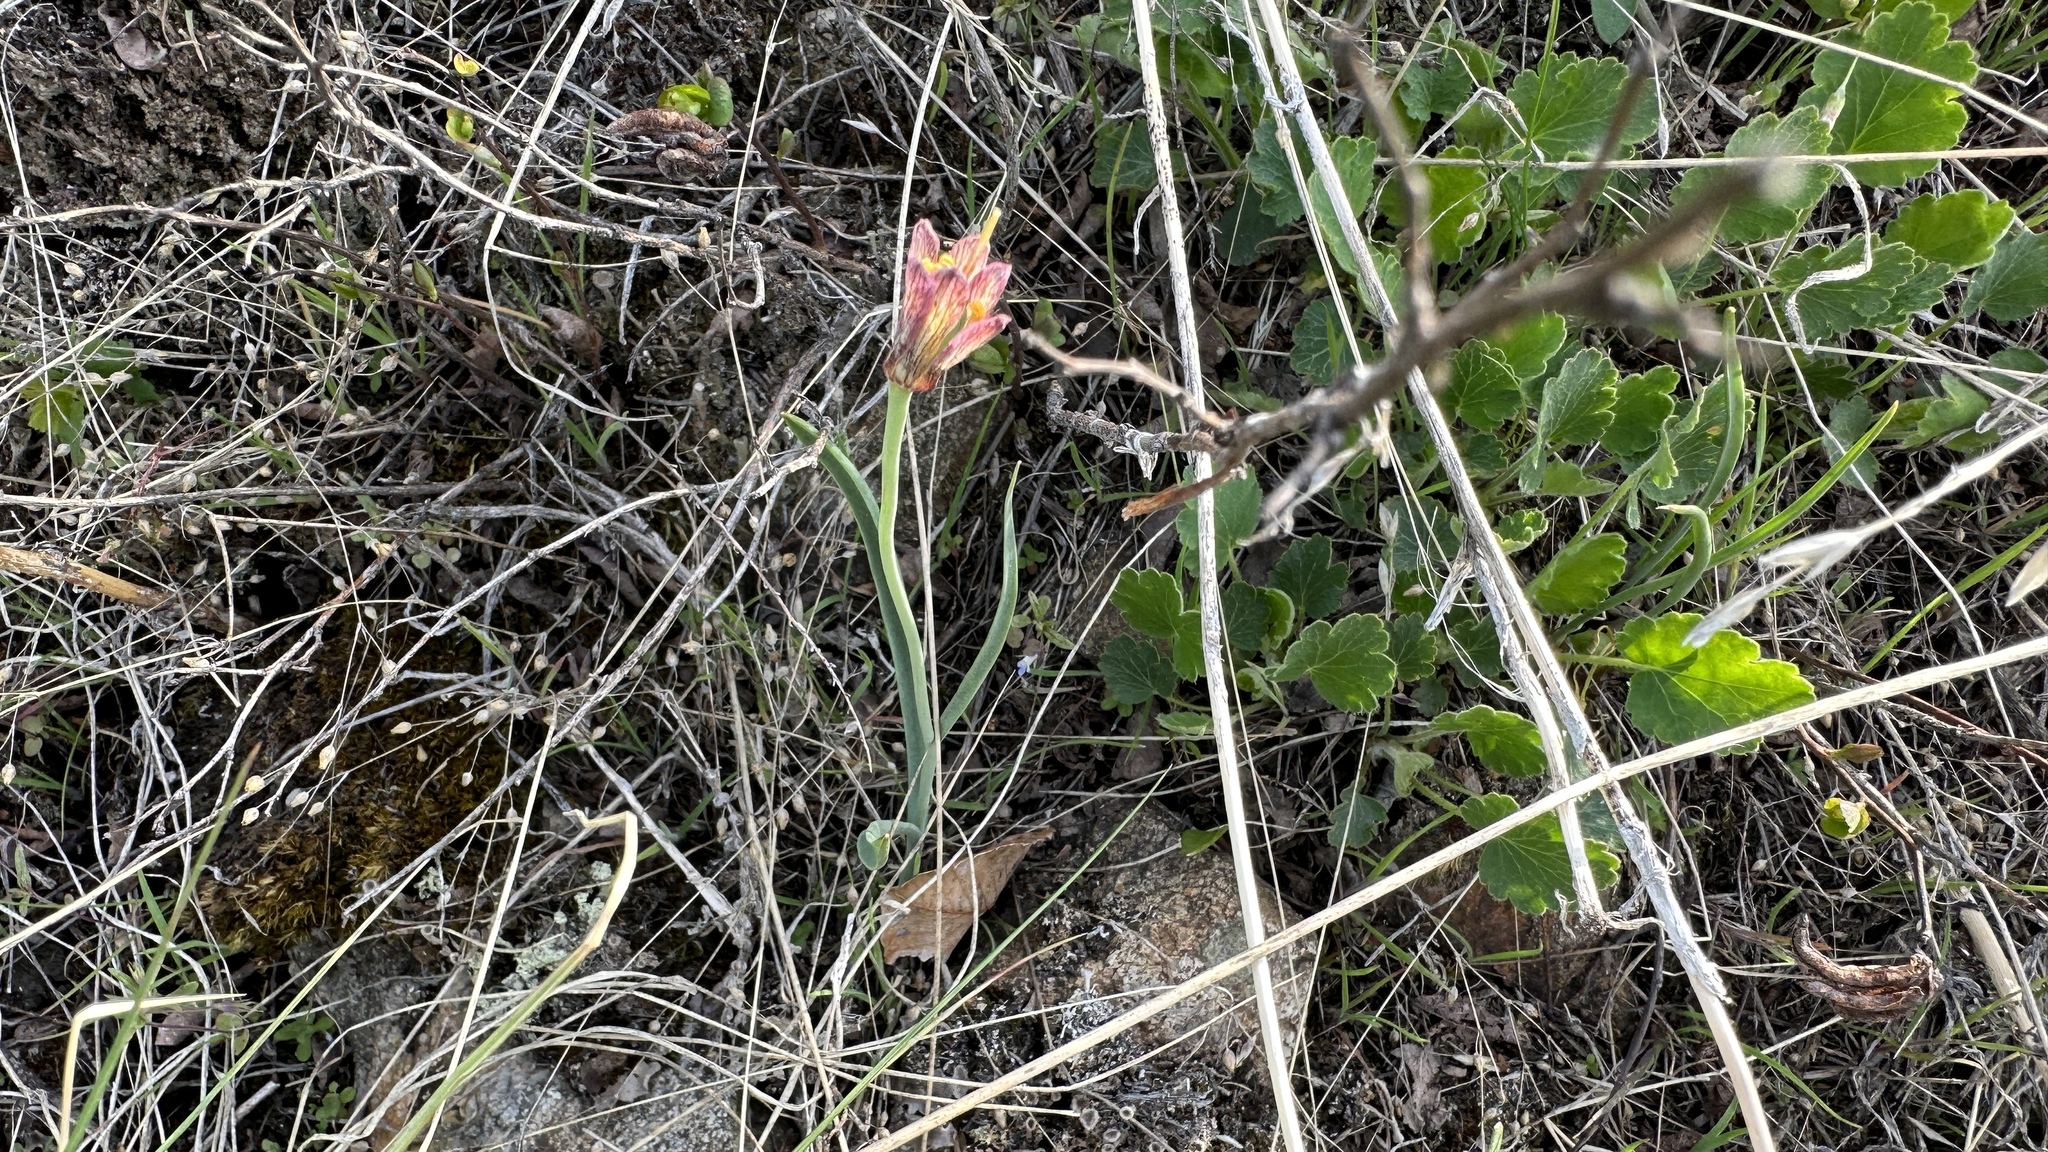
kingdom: Plantae
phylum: Tracheophyta
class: Liliopsida
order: Liliales
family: Liliaceae
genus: Fritillaria
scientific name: Fritillaria pudica
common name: Yellow fritillary
